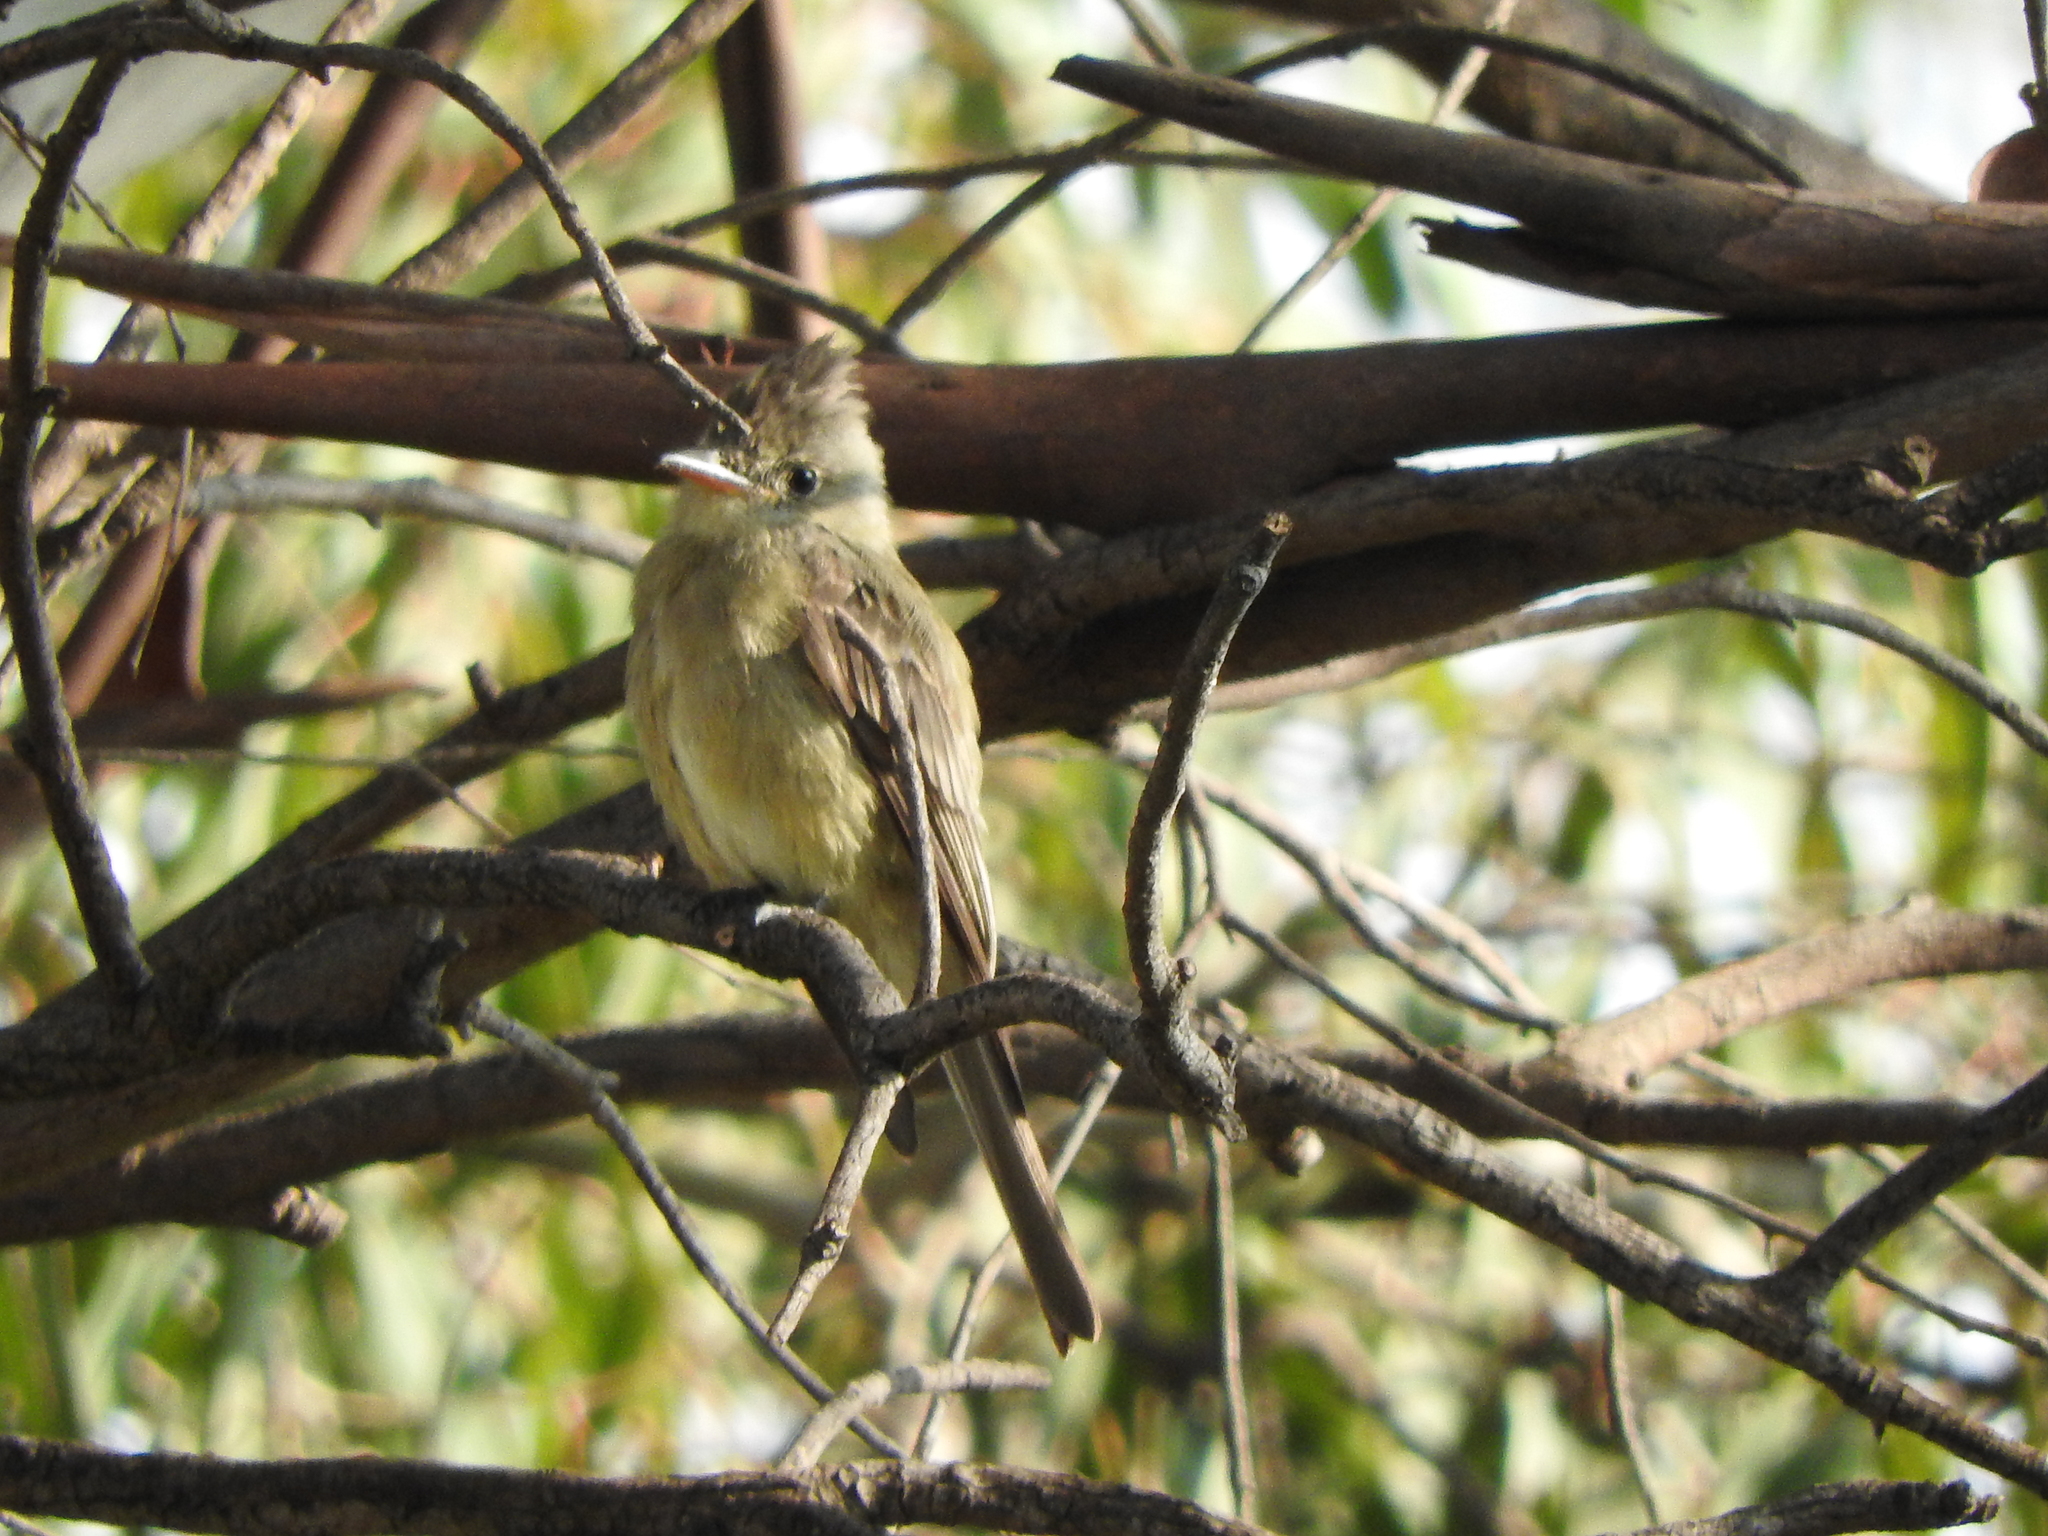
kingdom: Animalia
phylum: Chordata
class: Aves
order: Passeriformes
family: Tyrannidae
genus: Contopus
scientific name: Contopus pertinax
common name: Greater pewee
